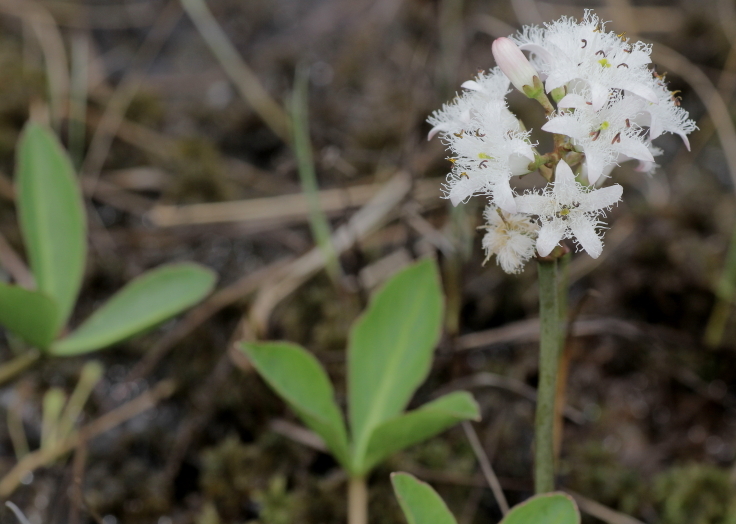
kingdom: Plantae
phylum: Tracheophyta
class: Magnoliopsida
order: Asterales
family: Menyanthaceae
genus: Menyanthes
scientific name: Menyanthes trifoliata
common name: Bogbean
